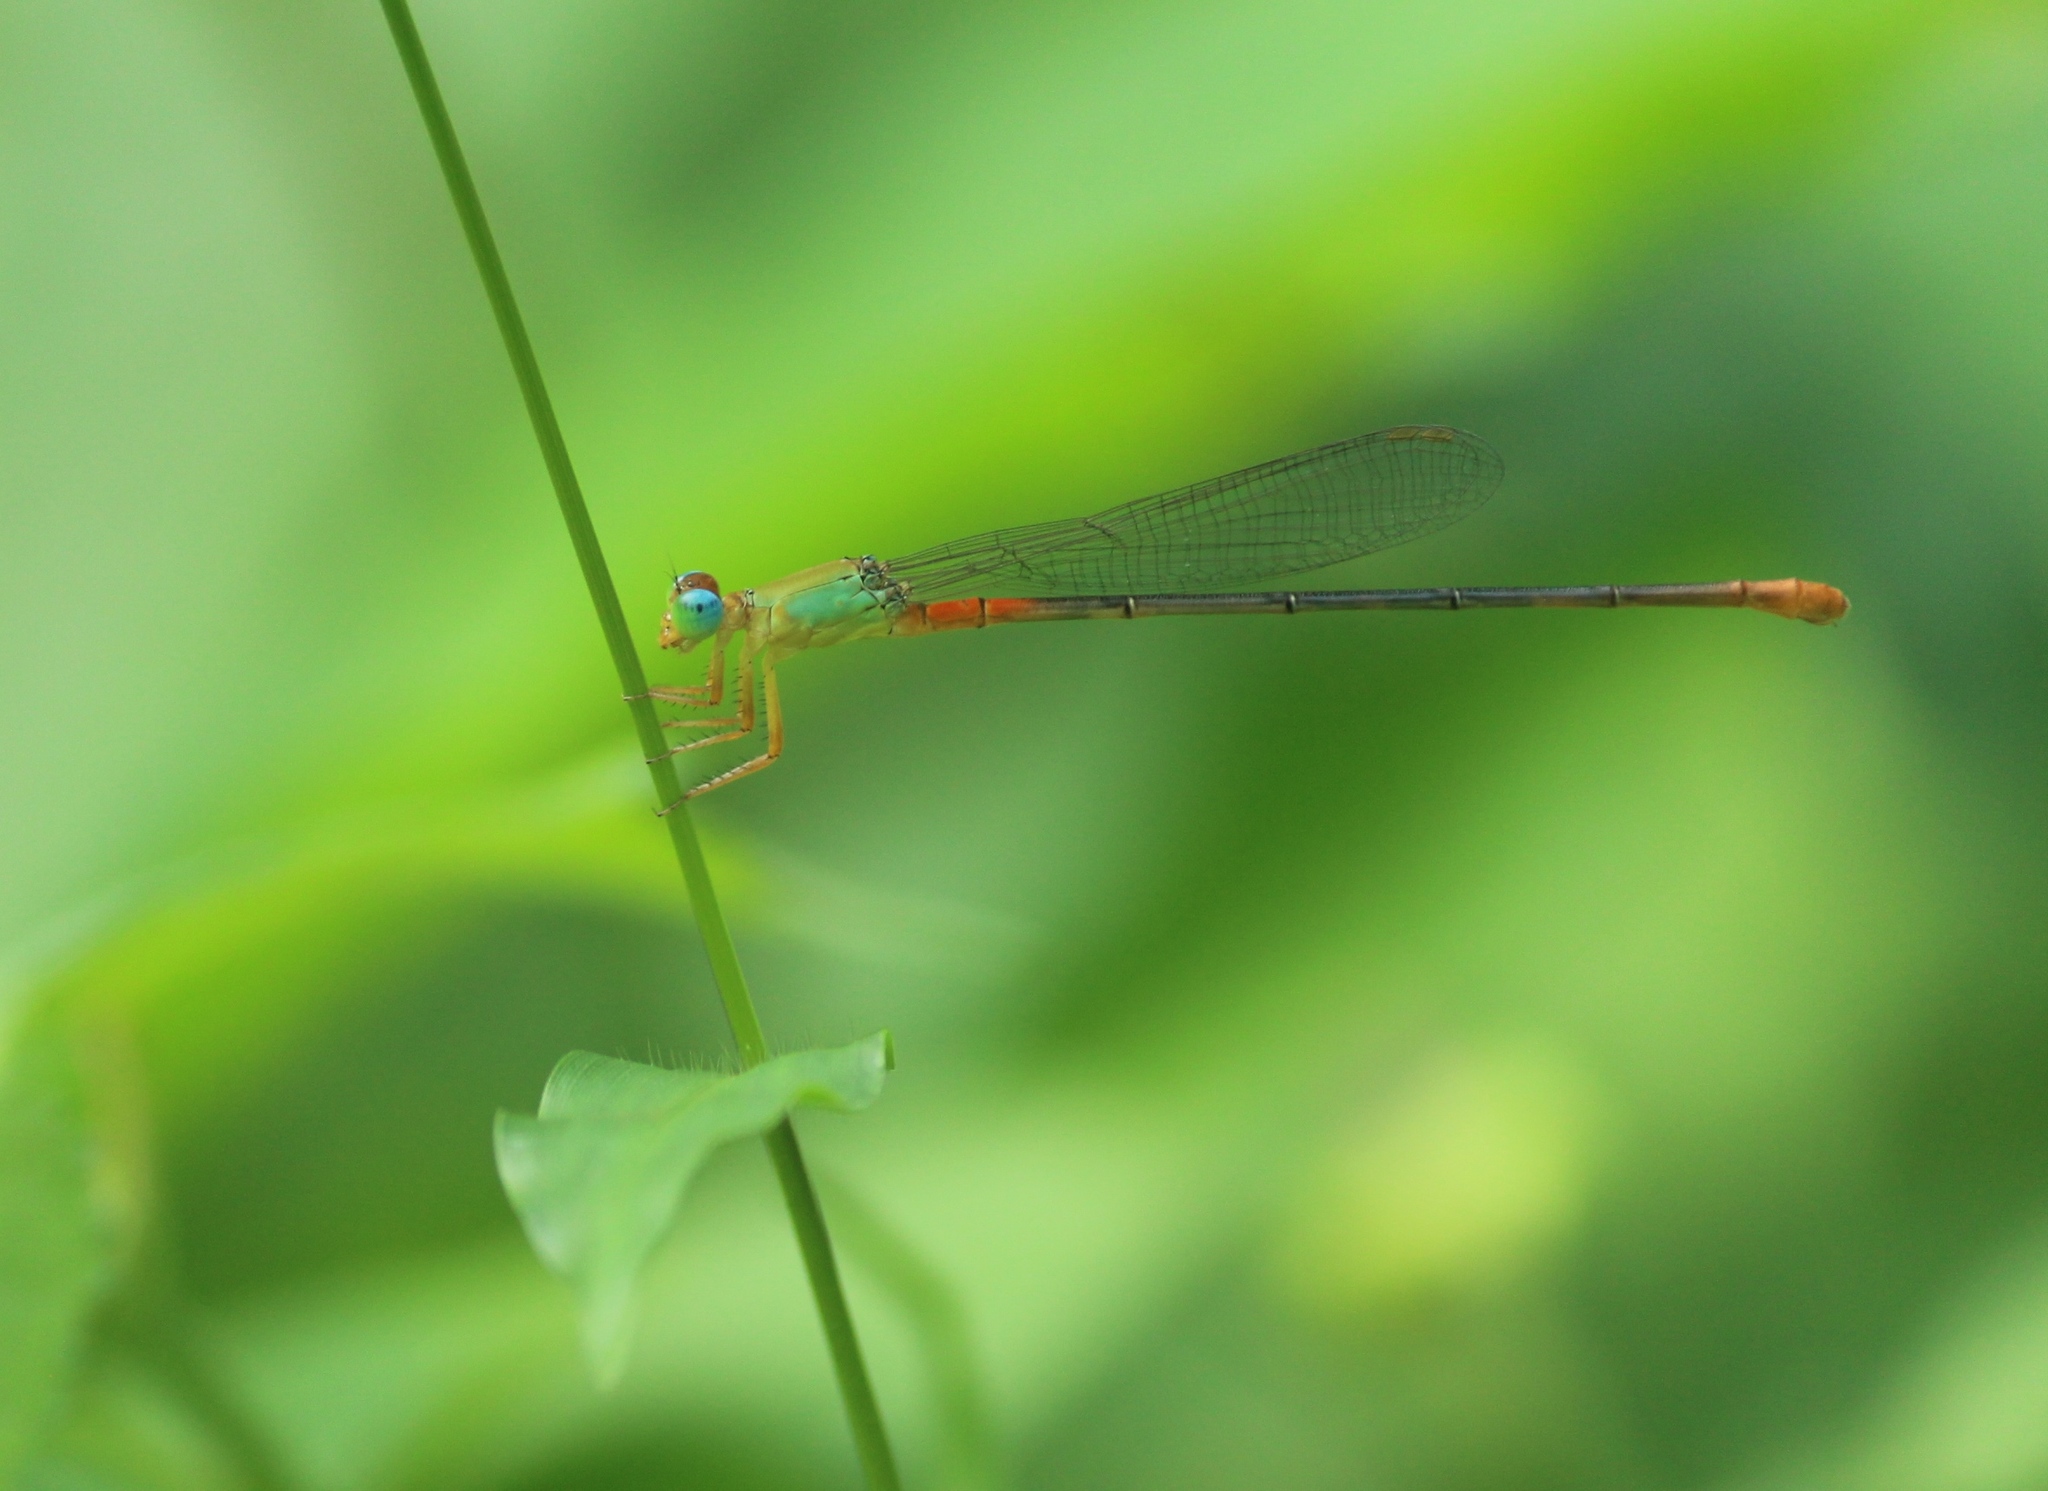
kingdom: Animalia
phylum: Arthropoda
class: Insecta
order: Odonata
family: Coenagrionidae
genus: Ceriagrion
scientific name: Ceriagrion cerinorubellum
